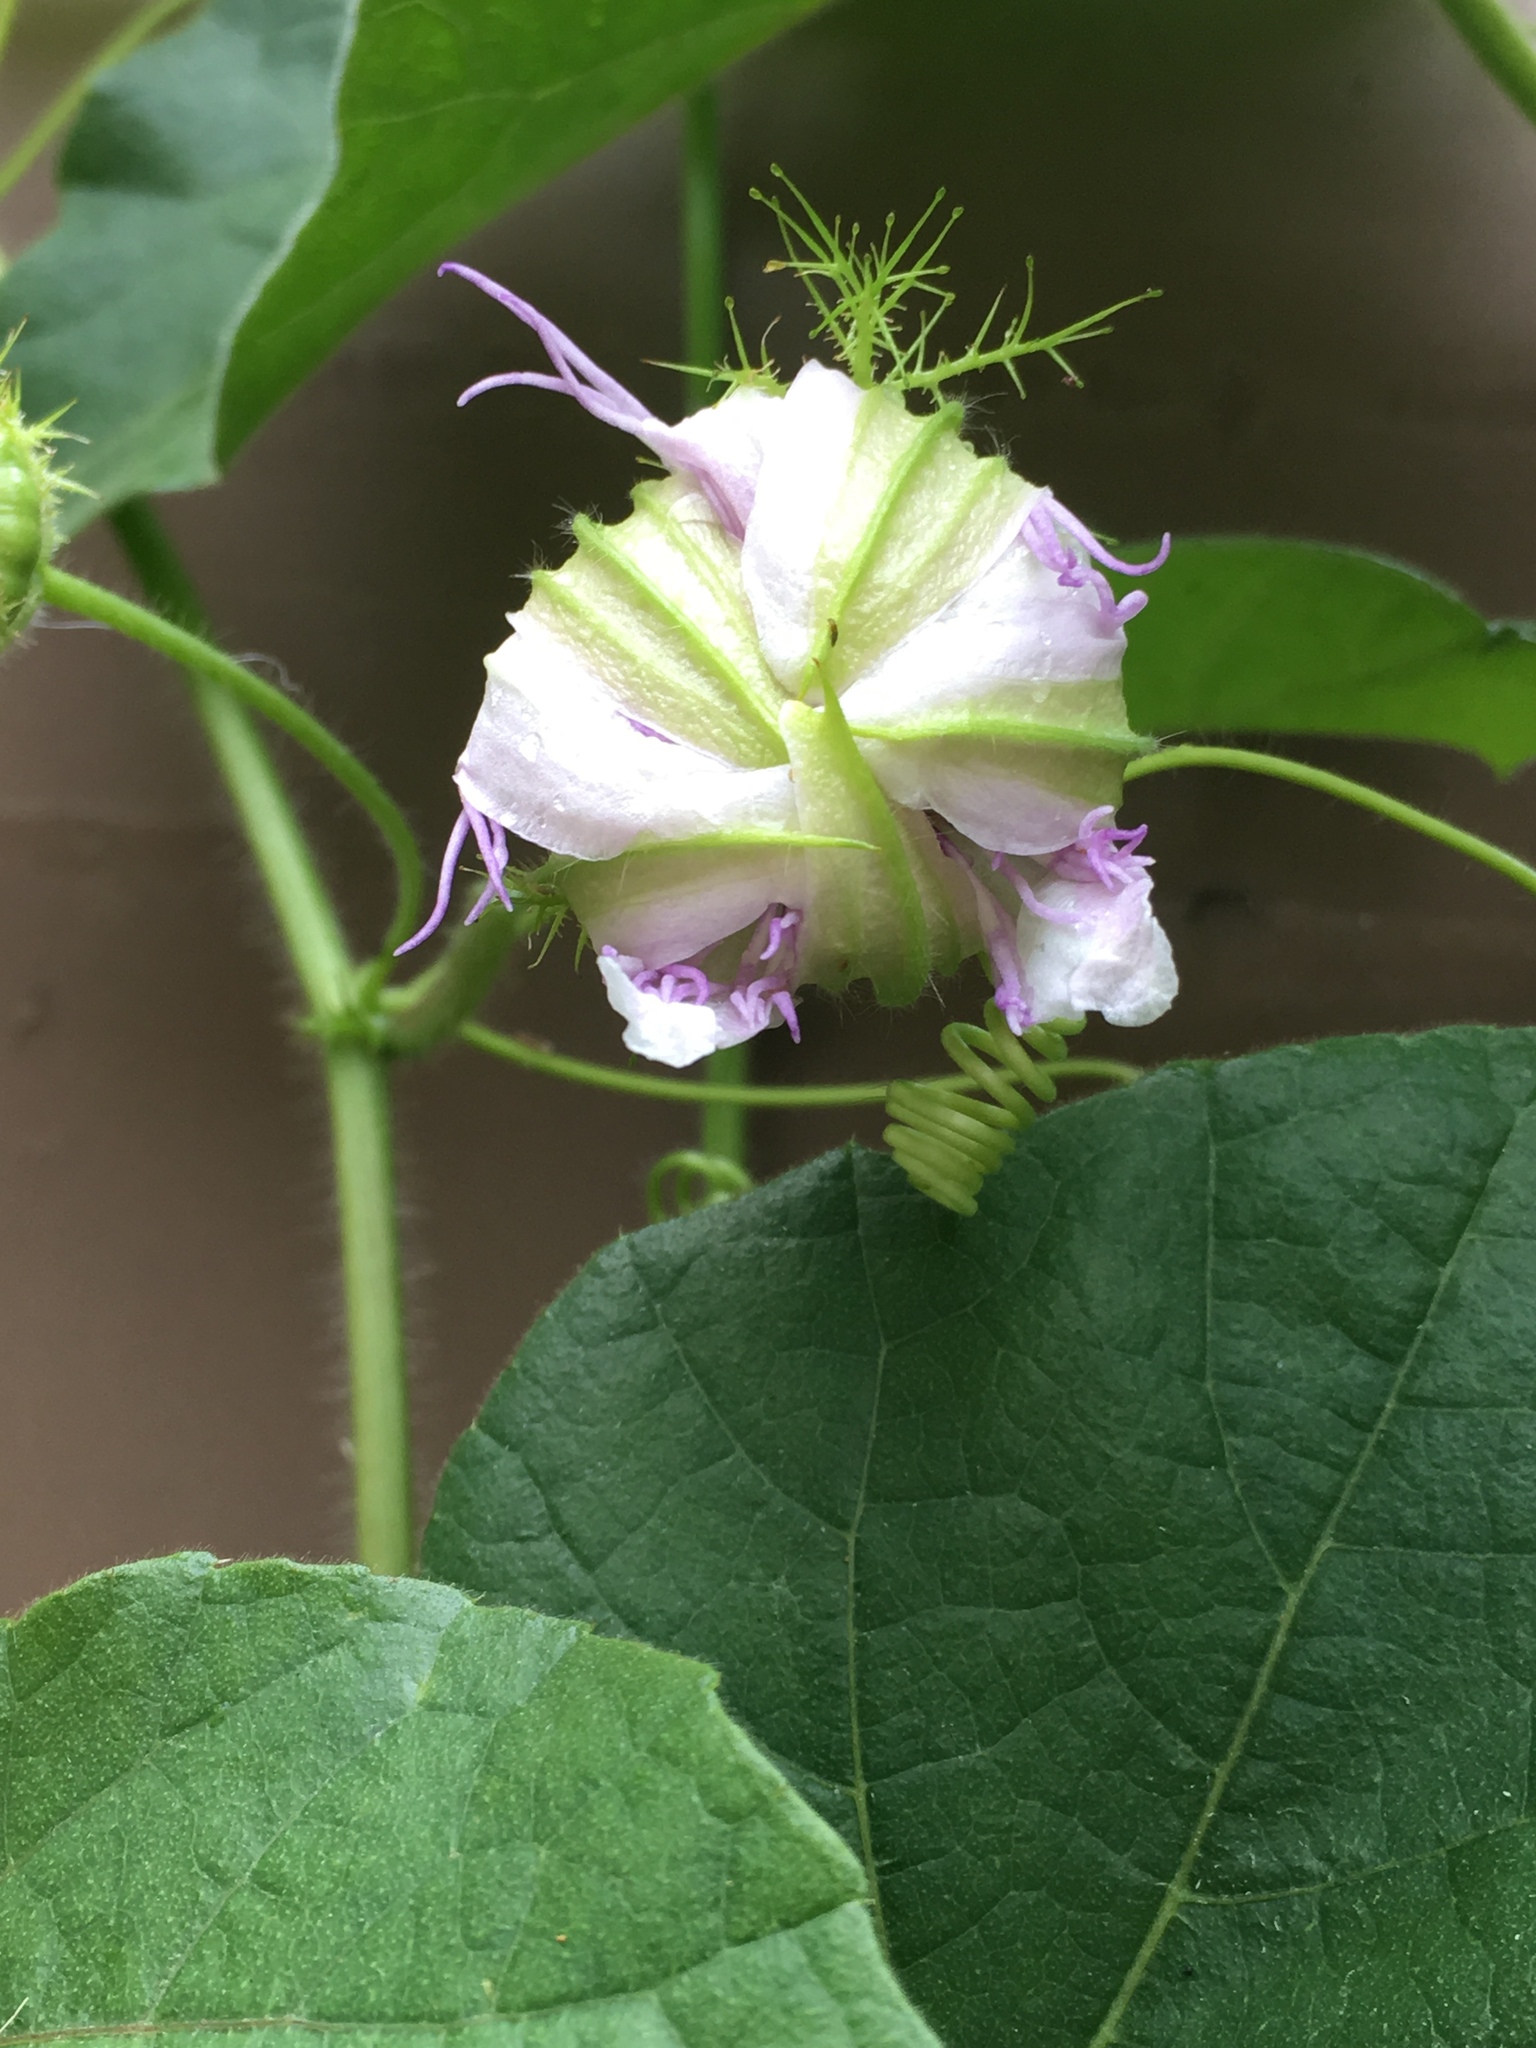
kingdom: Animalia
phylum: Arthropoda
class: Insecta
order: Lepidoptera
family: Nymphalidae
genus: Dione
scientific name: Dione vanillae
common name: Gulf fritillary
